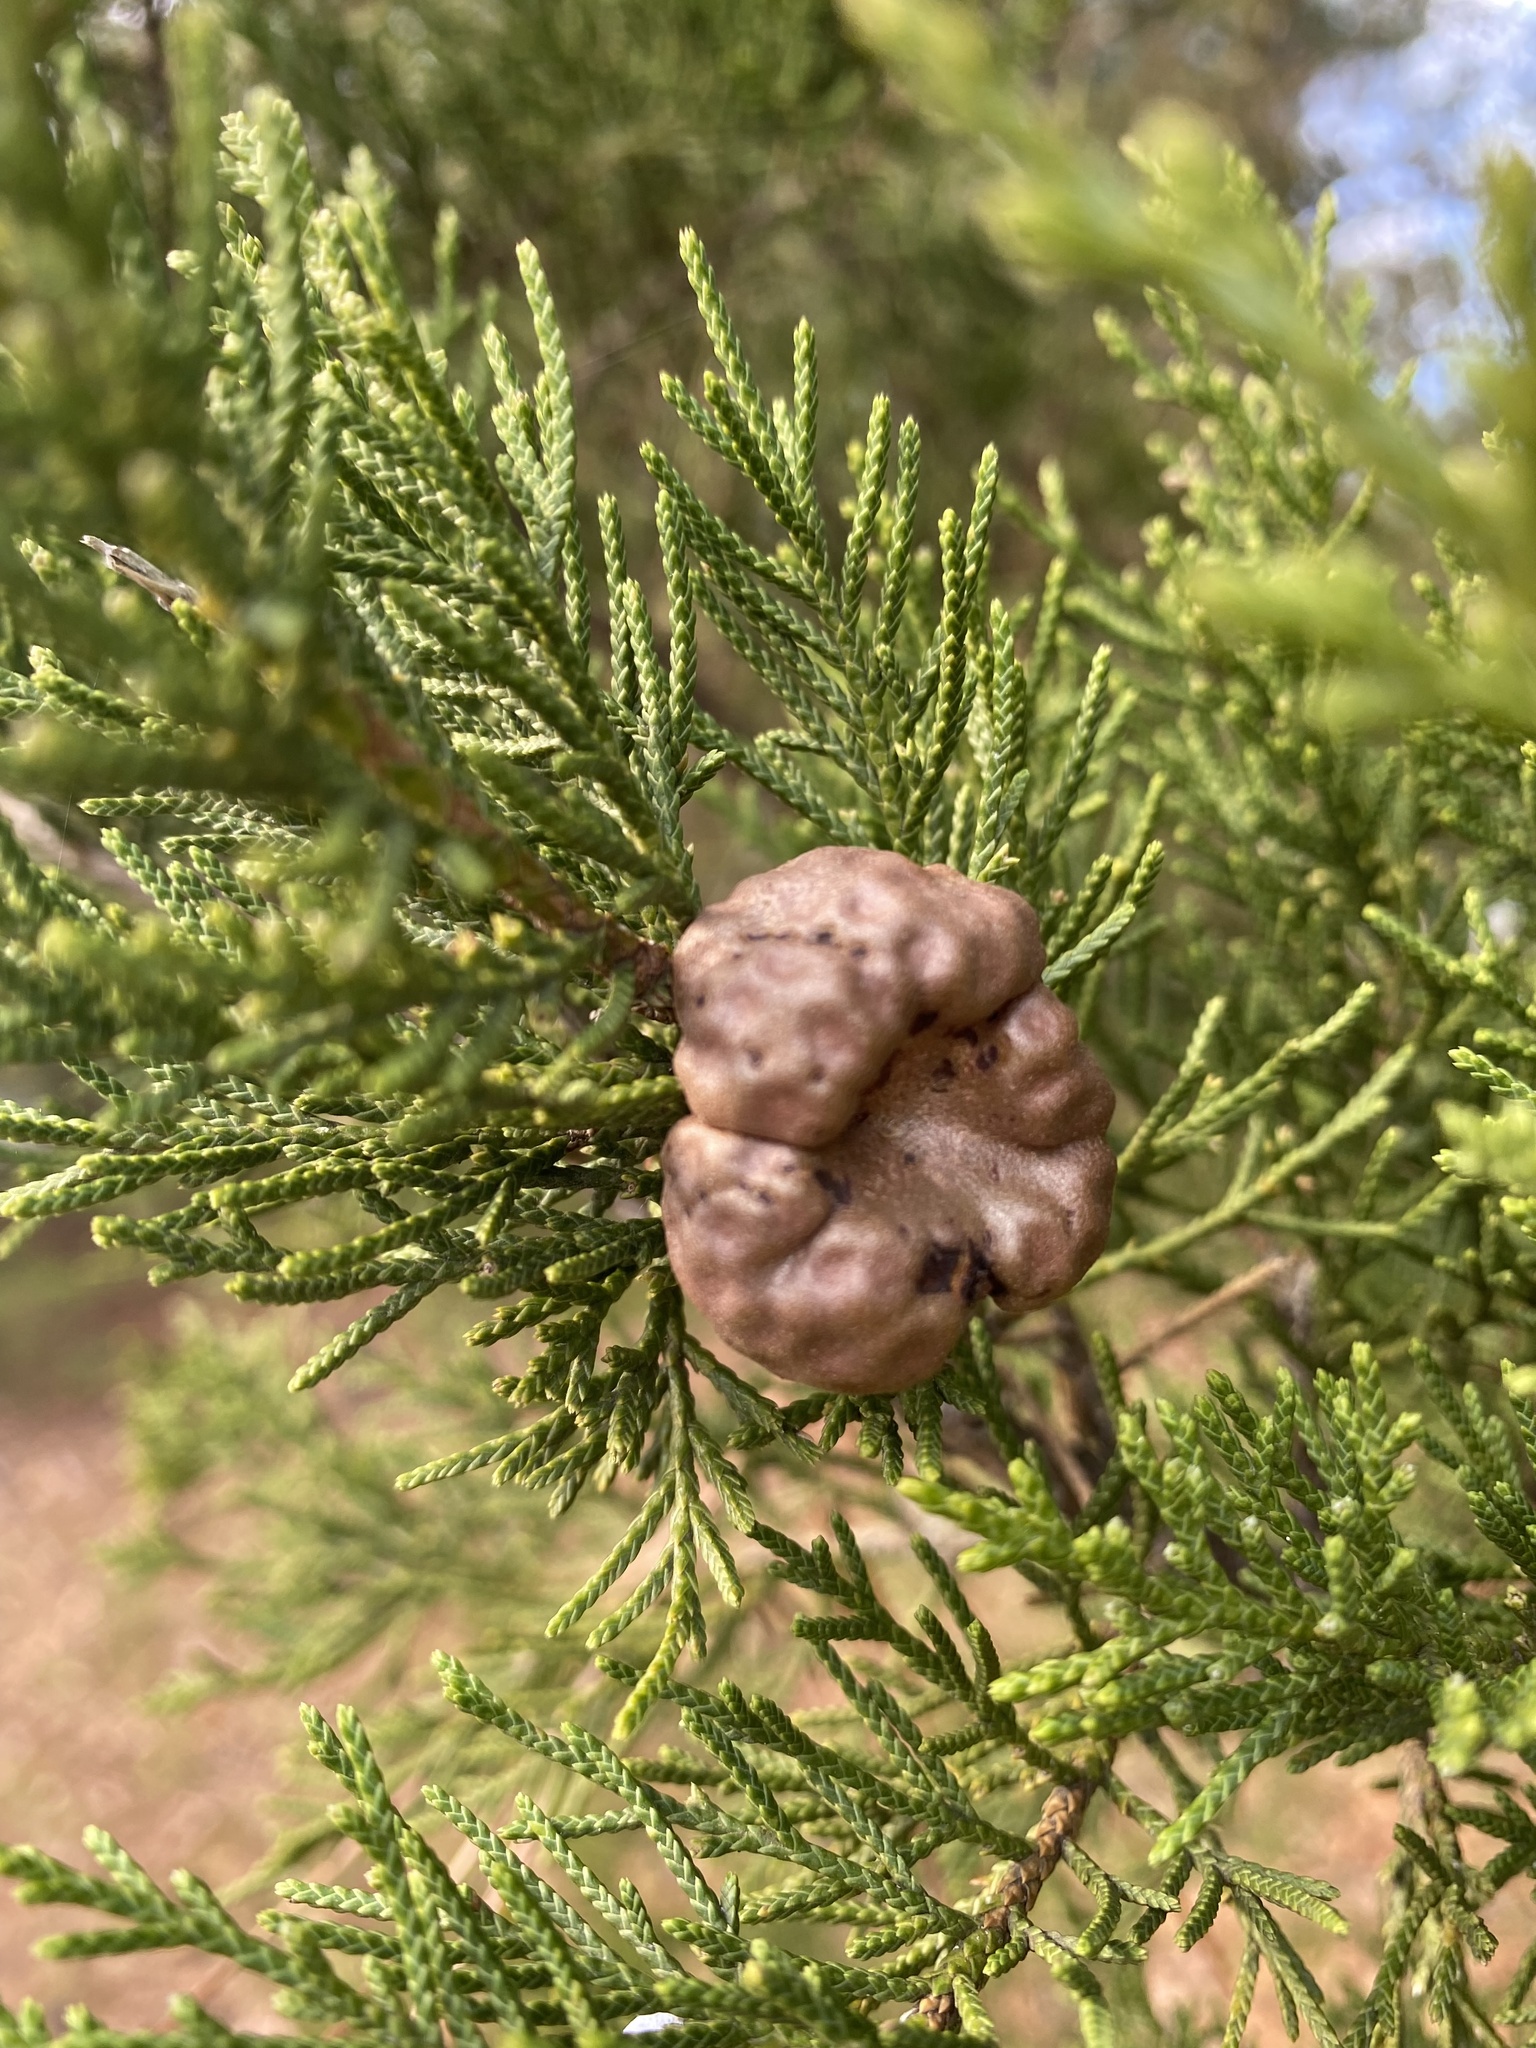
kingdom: Fungi
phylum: Basidiomycota
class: Pucciniomycetes
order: Pucciniales
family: Gymnosporangiaceae
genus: Gymnosporangium
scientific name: Gymnosporangium juniperi-virginianae
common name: Juniper-apple rust
